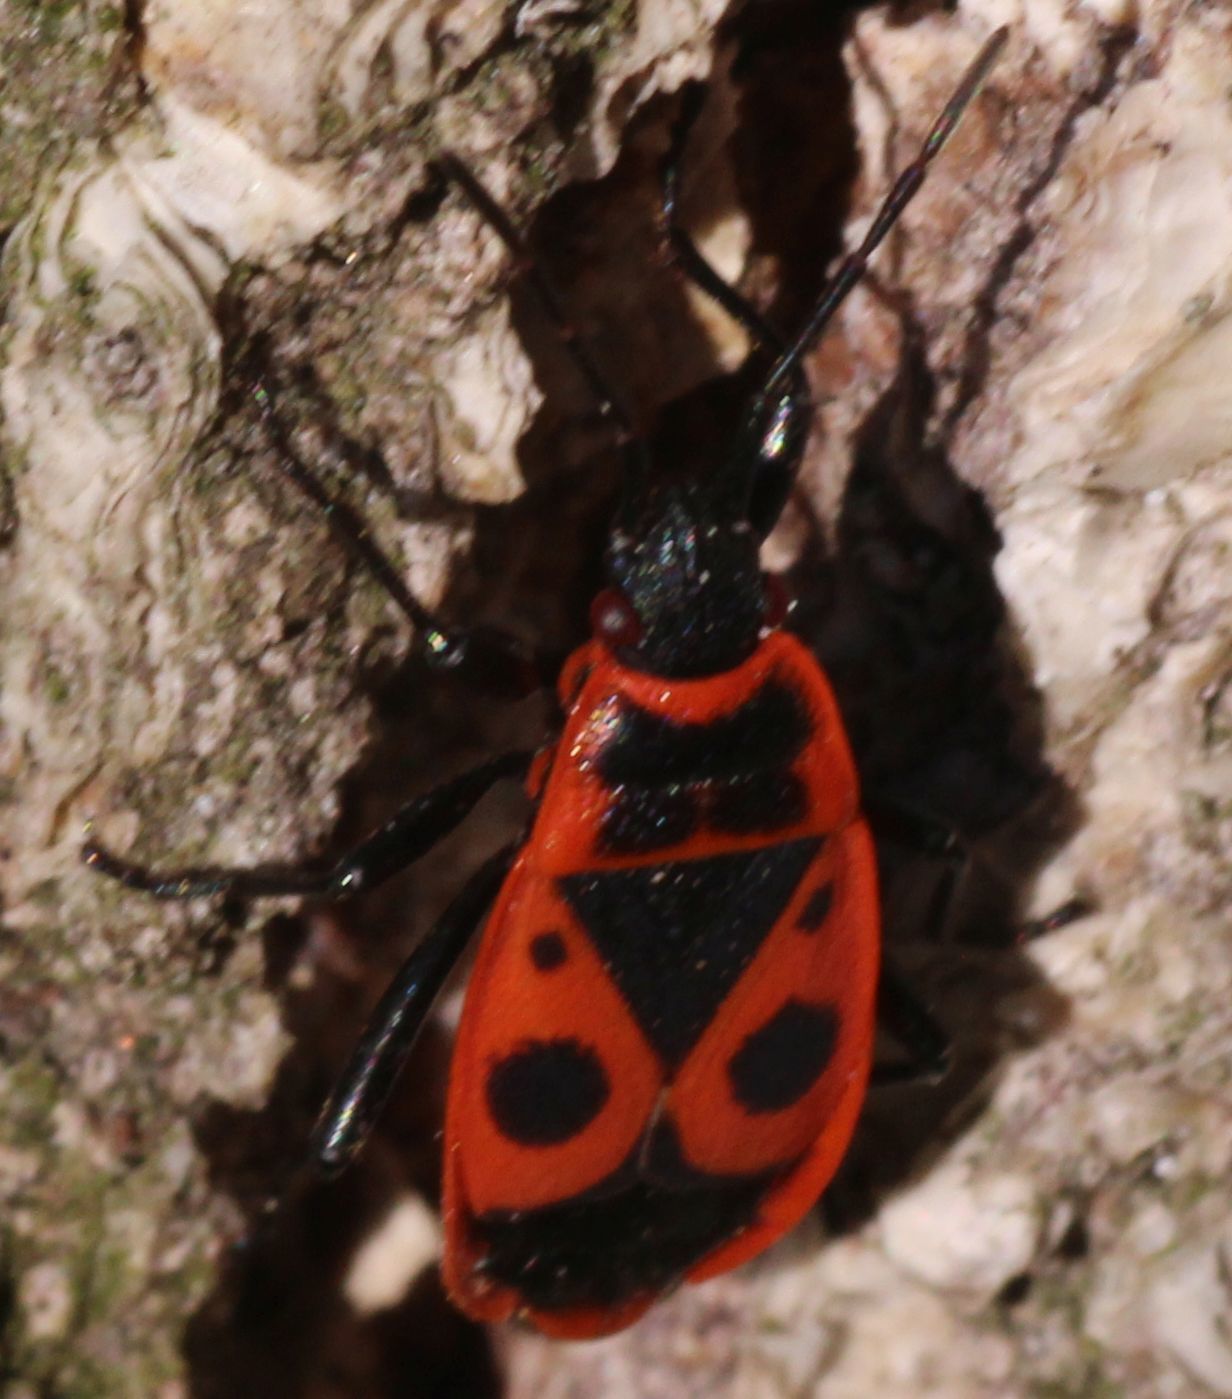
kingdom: Animalia
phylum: Arthropoda
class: Insecta
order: Hemiptera
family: Pyrrhocoridae
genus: Pyrrhocoris
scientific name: Pyrrhocoris apterus
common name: Firebug
